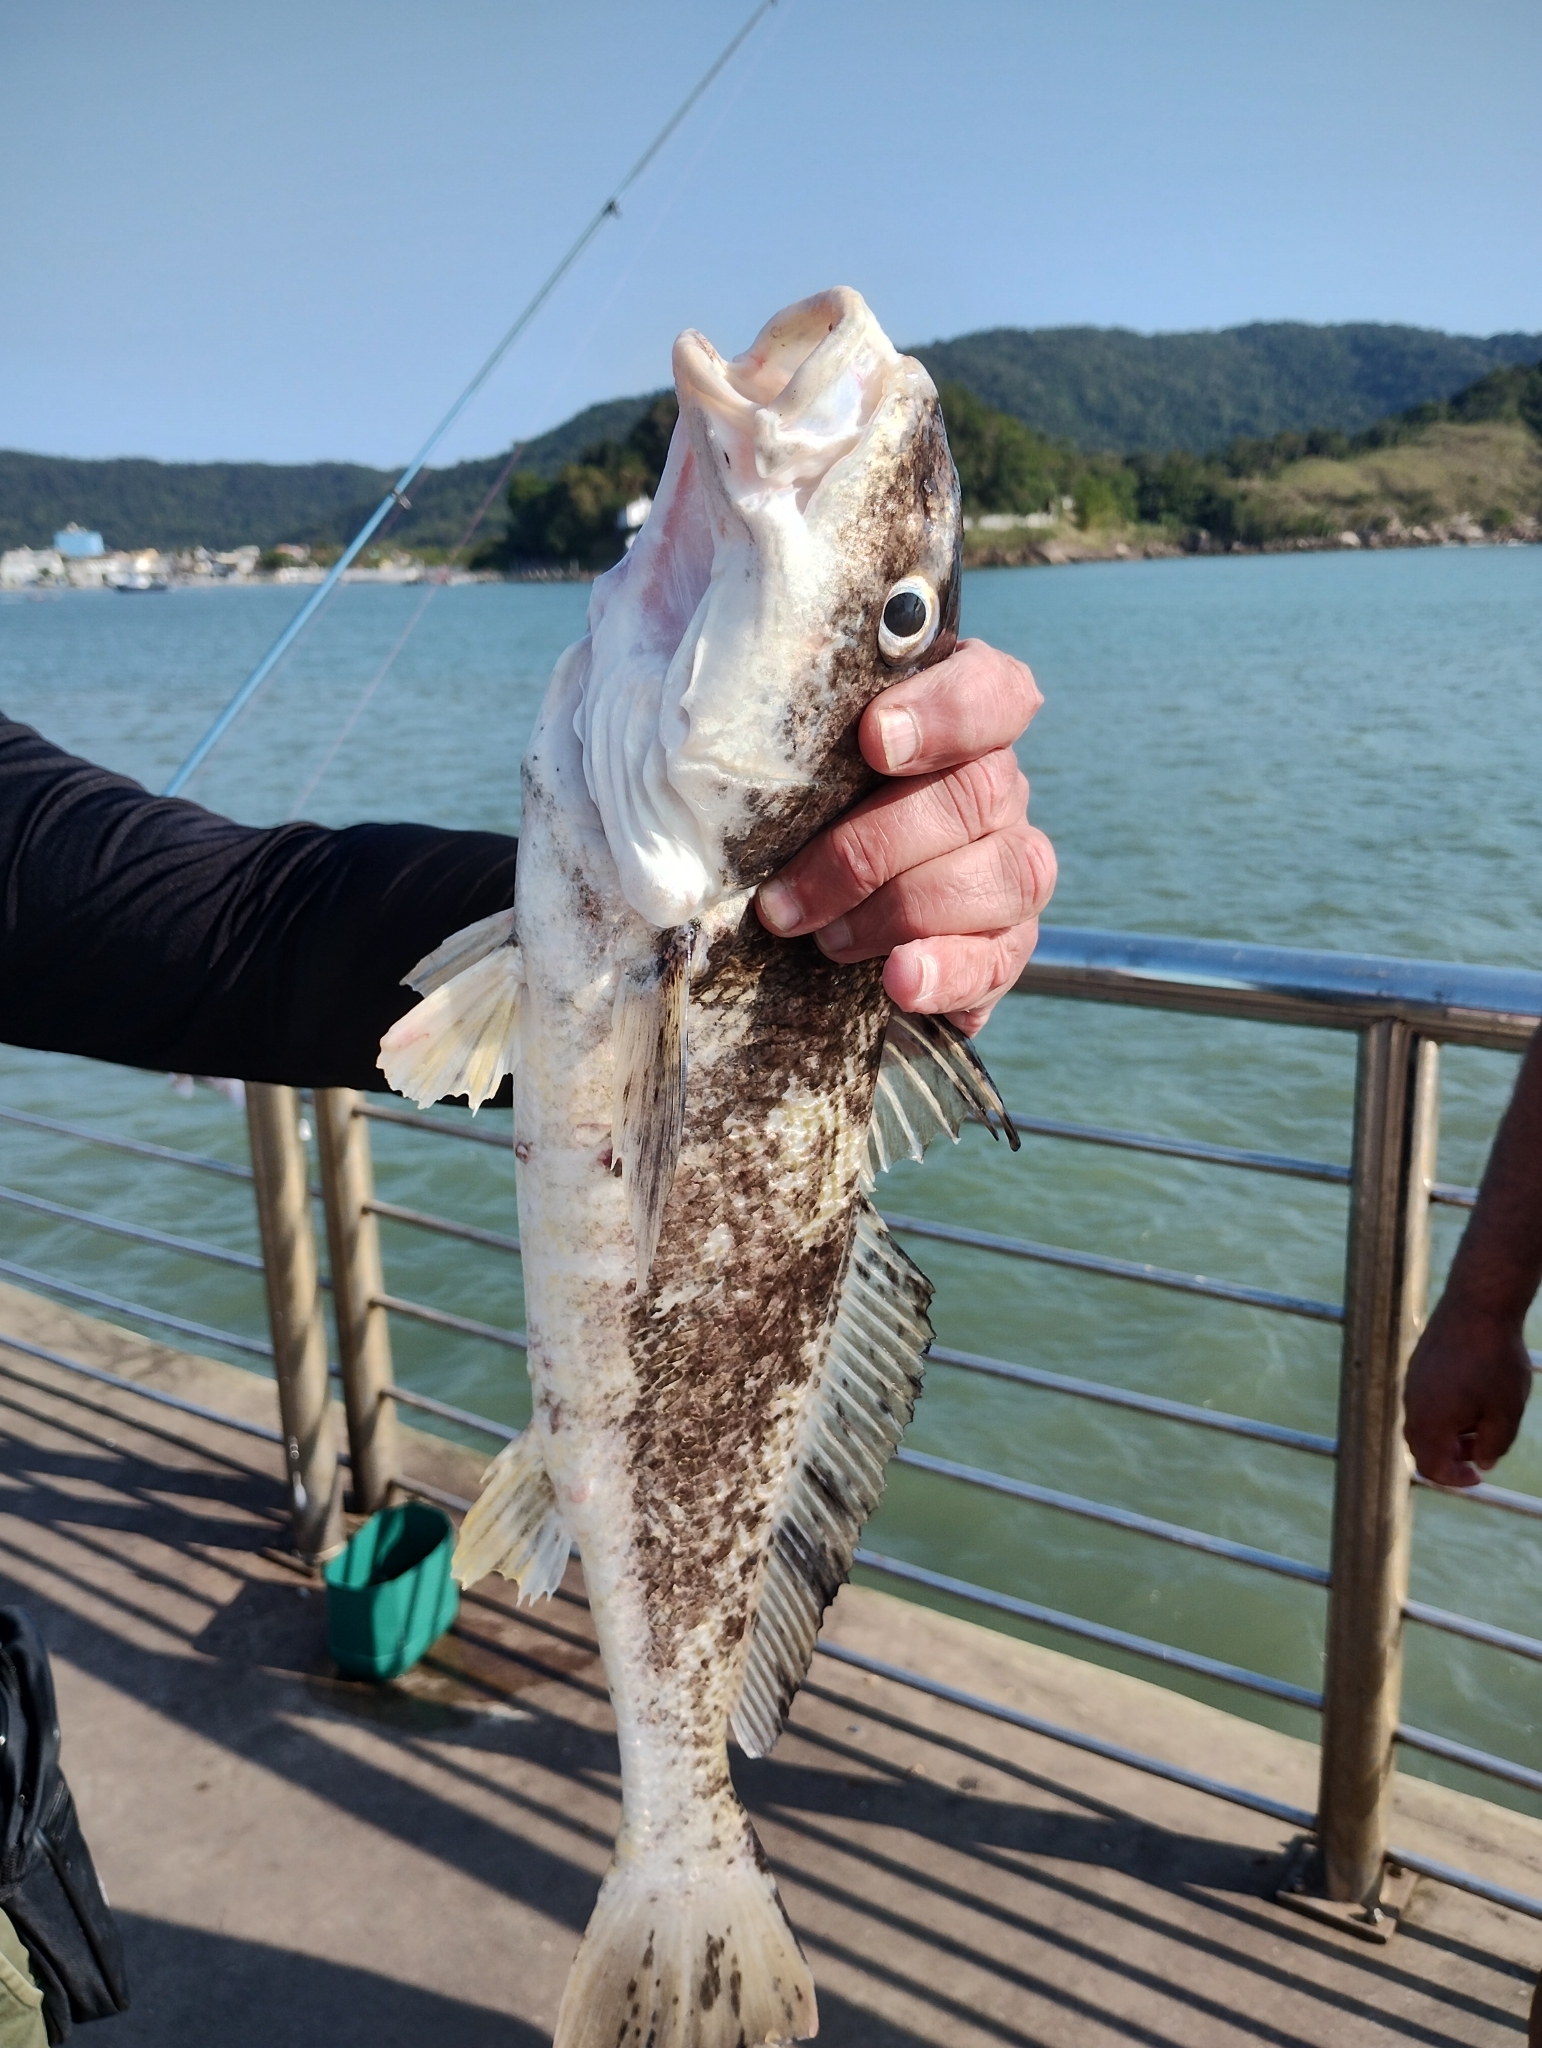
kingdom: Animalia
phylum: Chordata
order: Perciformes
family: Sciaenidae
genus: Cynoscion
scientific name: Cynoscion acoupa
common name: Acoupa weakfish
